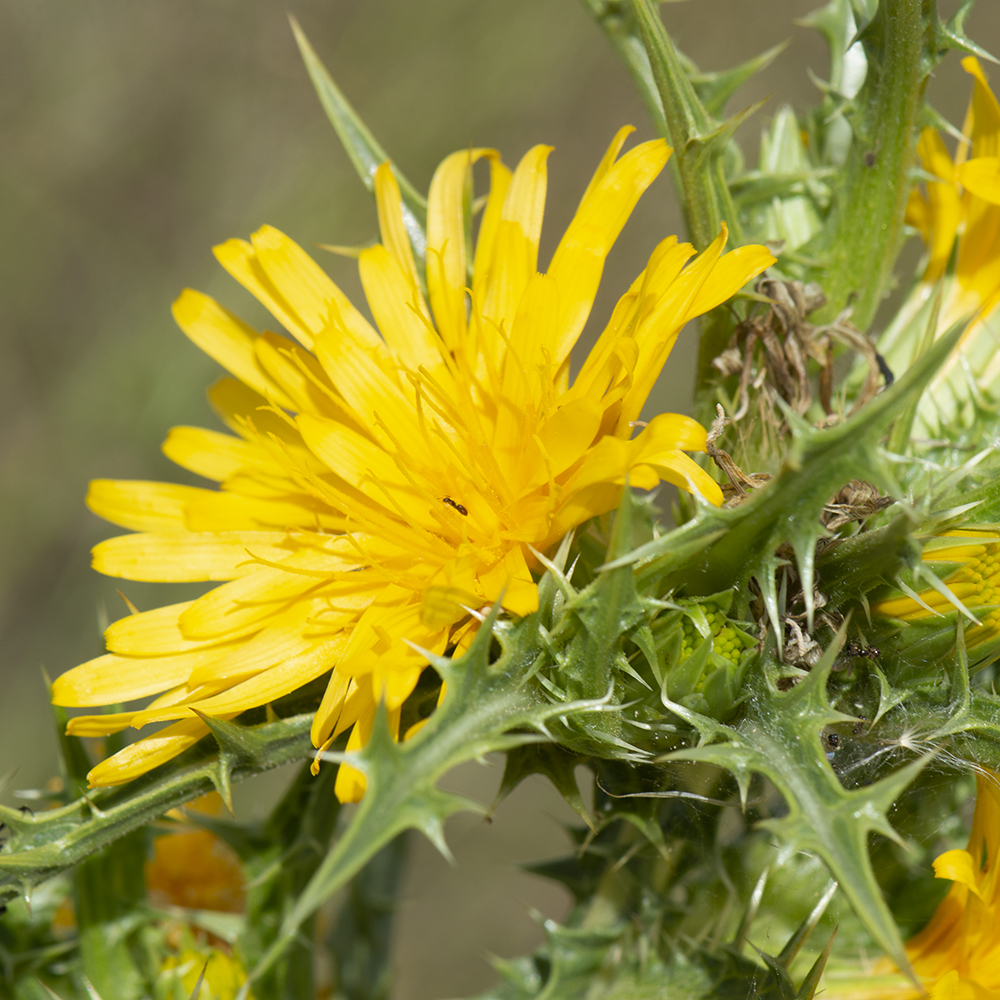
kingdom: Plantae
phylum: Tracheophyta
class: Magnoliopsida
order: Asterales
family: Asteraceae
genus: Scolymus
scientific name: Scolymus hispanicus
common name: Golden thistle
